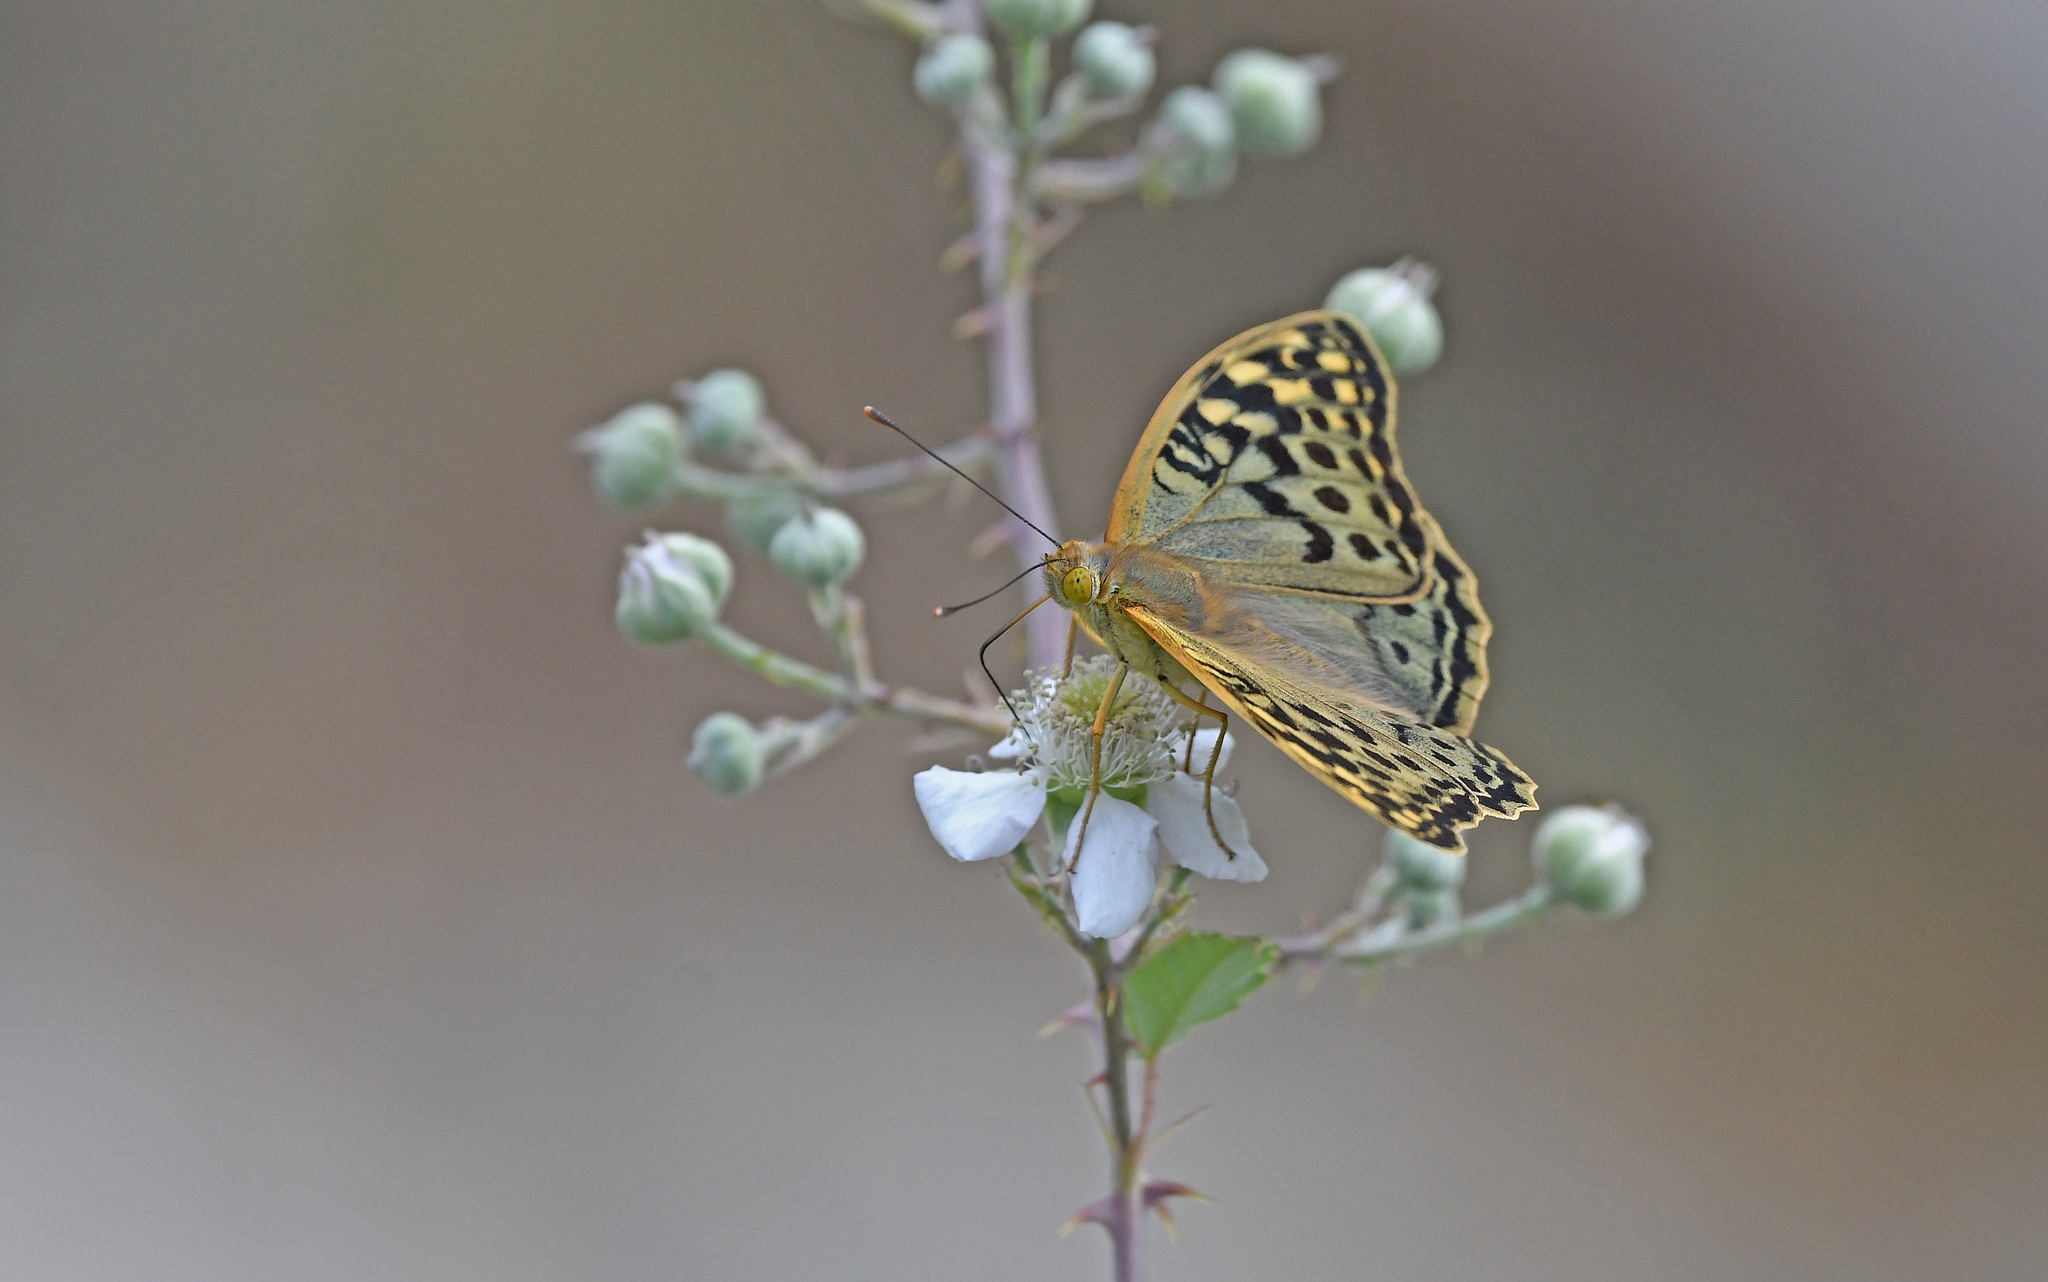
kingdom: Animalia
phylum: Arthropoda
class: Insecta
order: Lepidoptera
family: Nymphalidae
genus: Damora
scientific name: Damora pandora
